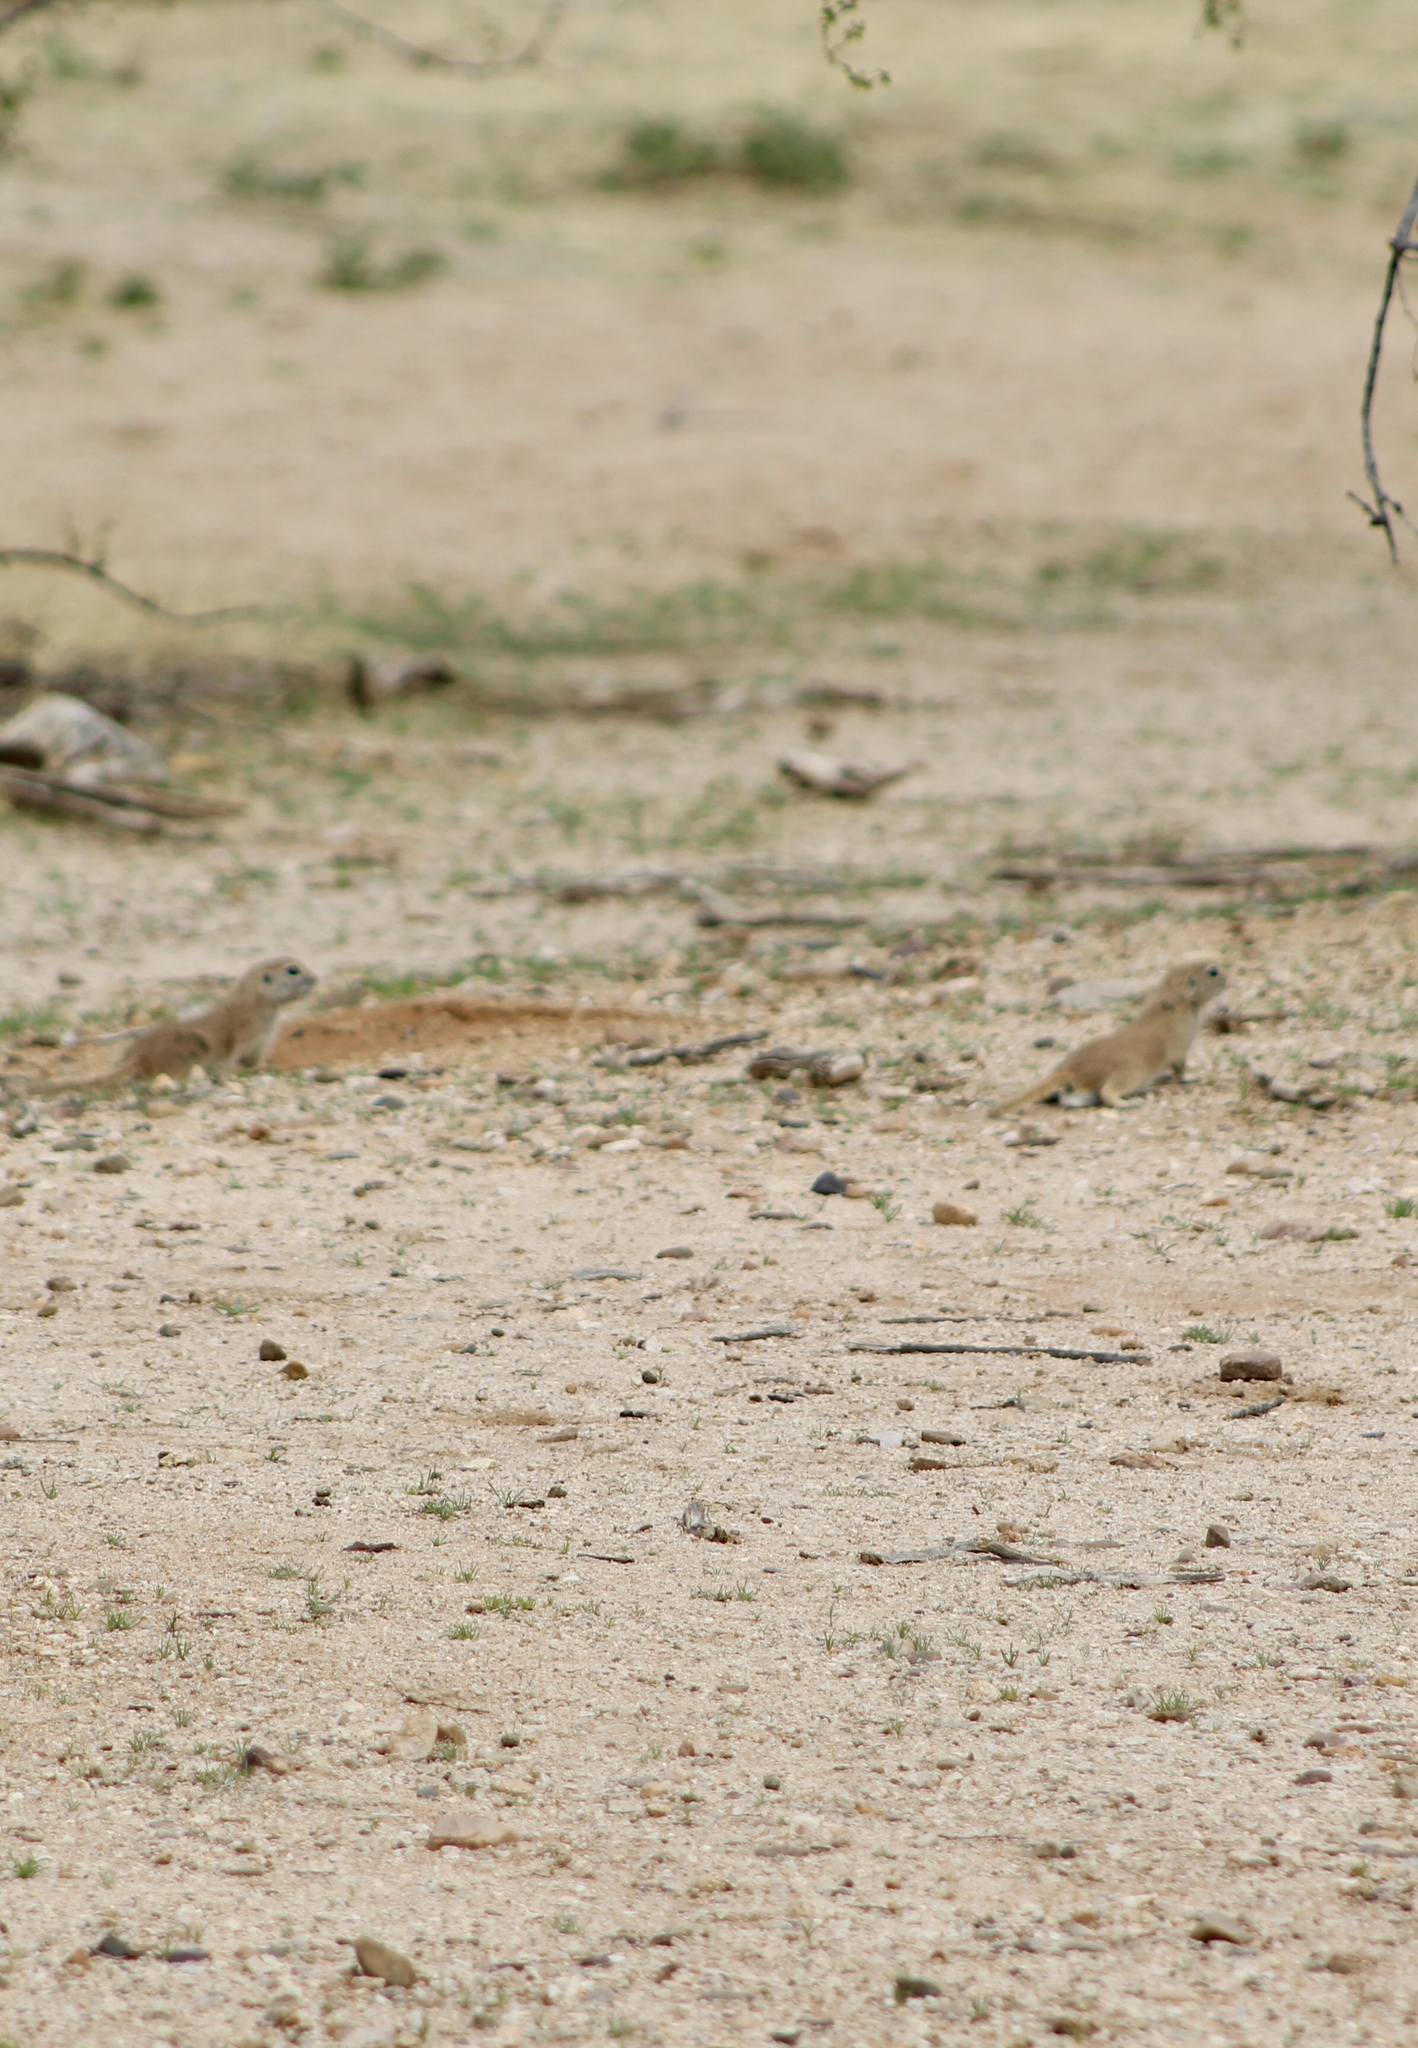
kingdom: Animalia
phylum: Chordata
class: Mammalia
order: Rodentia
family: Sciuridae
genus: Xerospermophilus
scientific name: Xerospermophilus tereticaudus
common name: Round-tailed ground squirrel
